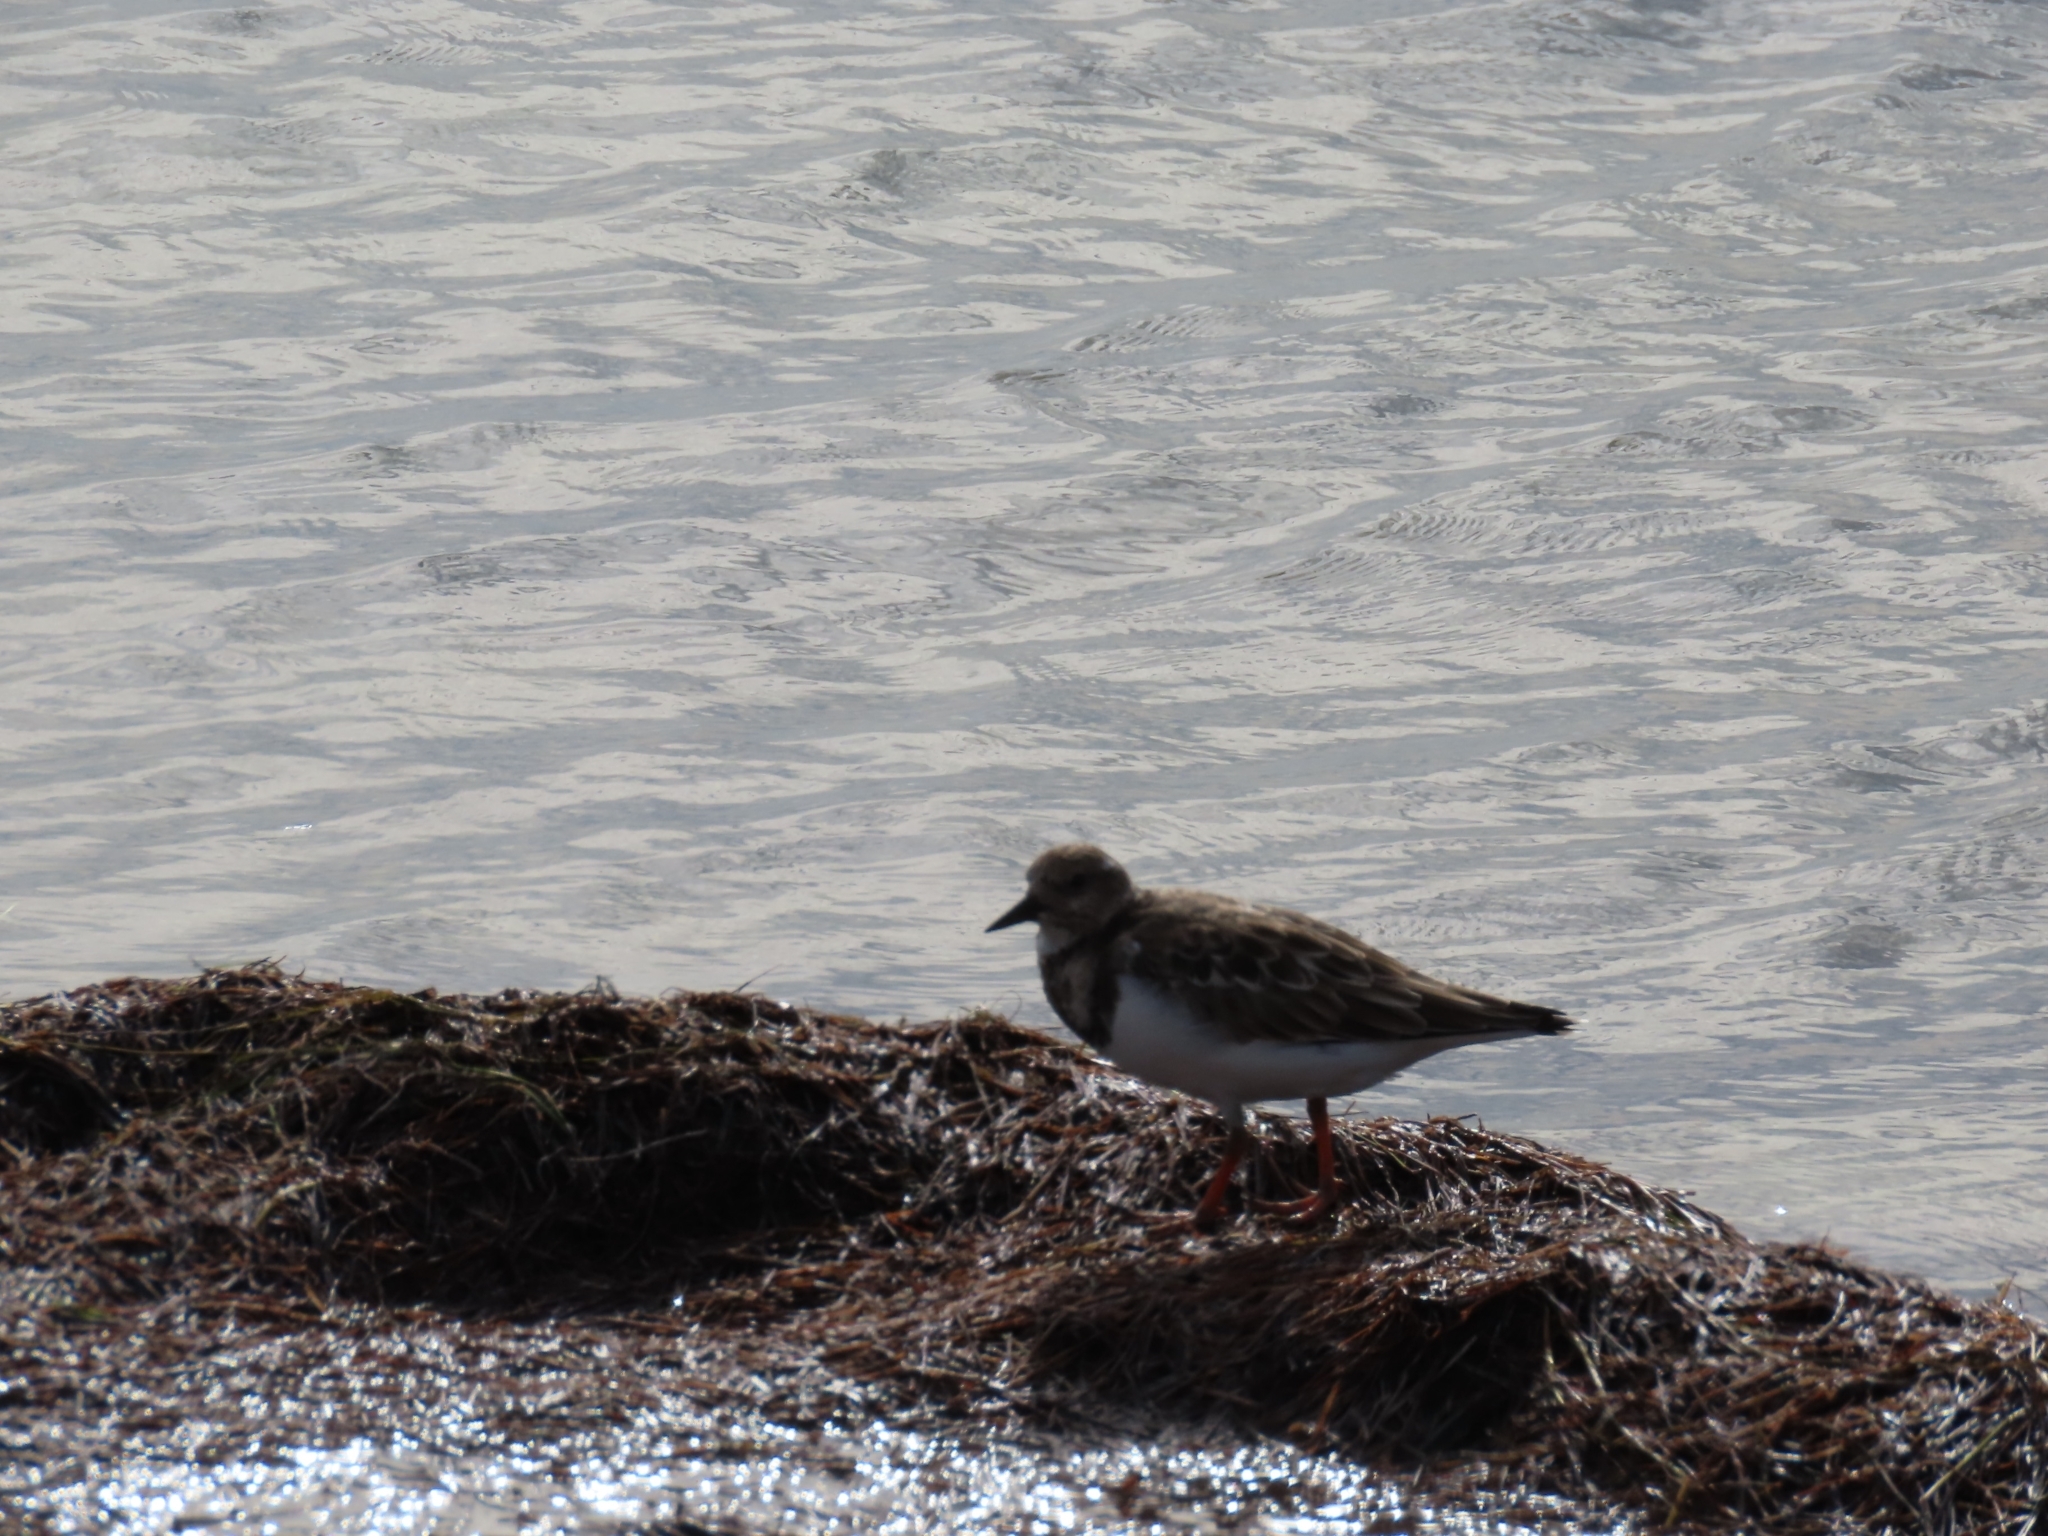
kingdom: Animalia
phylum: Chordata
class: Aves
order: Charadriiformes
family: Scolopacidae
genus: Arenaria
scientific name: Arenaria interpres
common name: Ruddy turnstone
